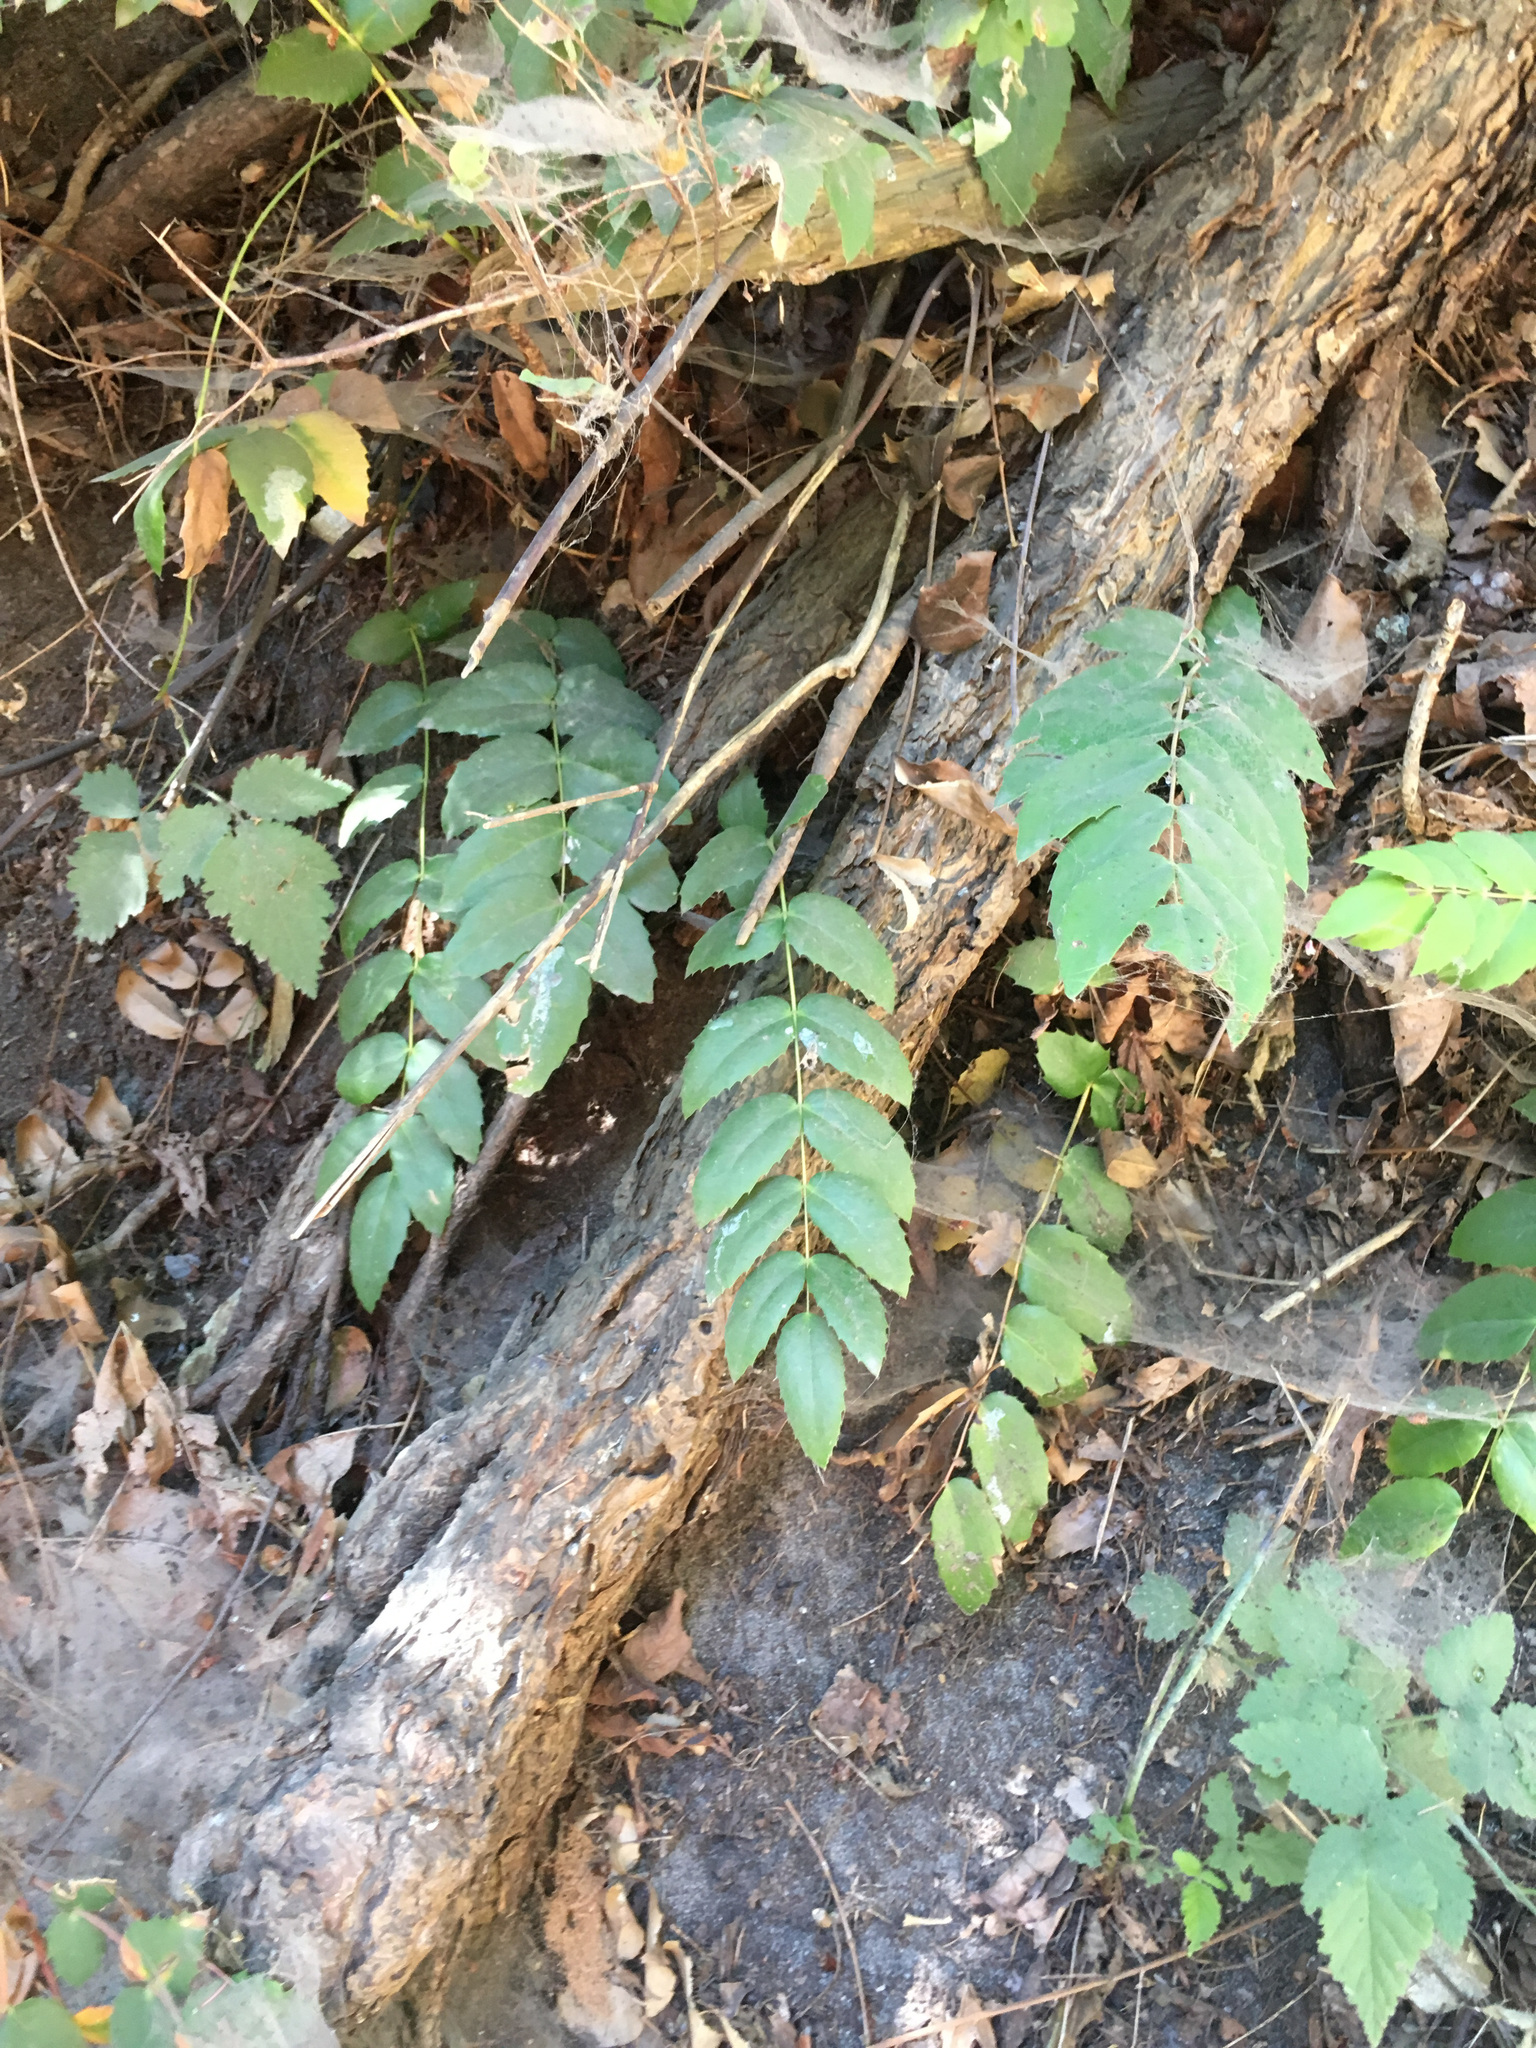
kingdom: Plantae
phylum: Tracheophyta
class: Magnoliopsida
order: Ranunculales
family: Berberidaceae
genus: Mahonia
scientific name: Mahonia nervosa
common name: Cascade oregon-grape
